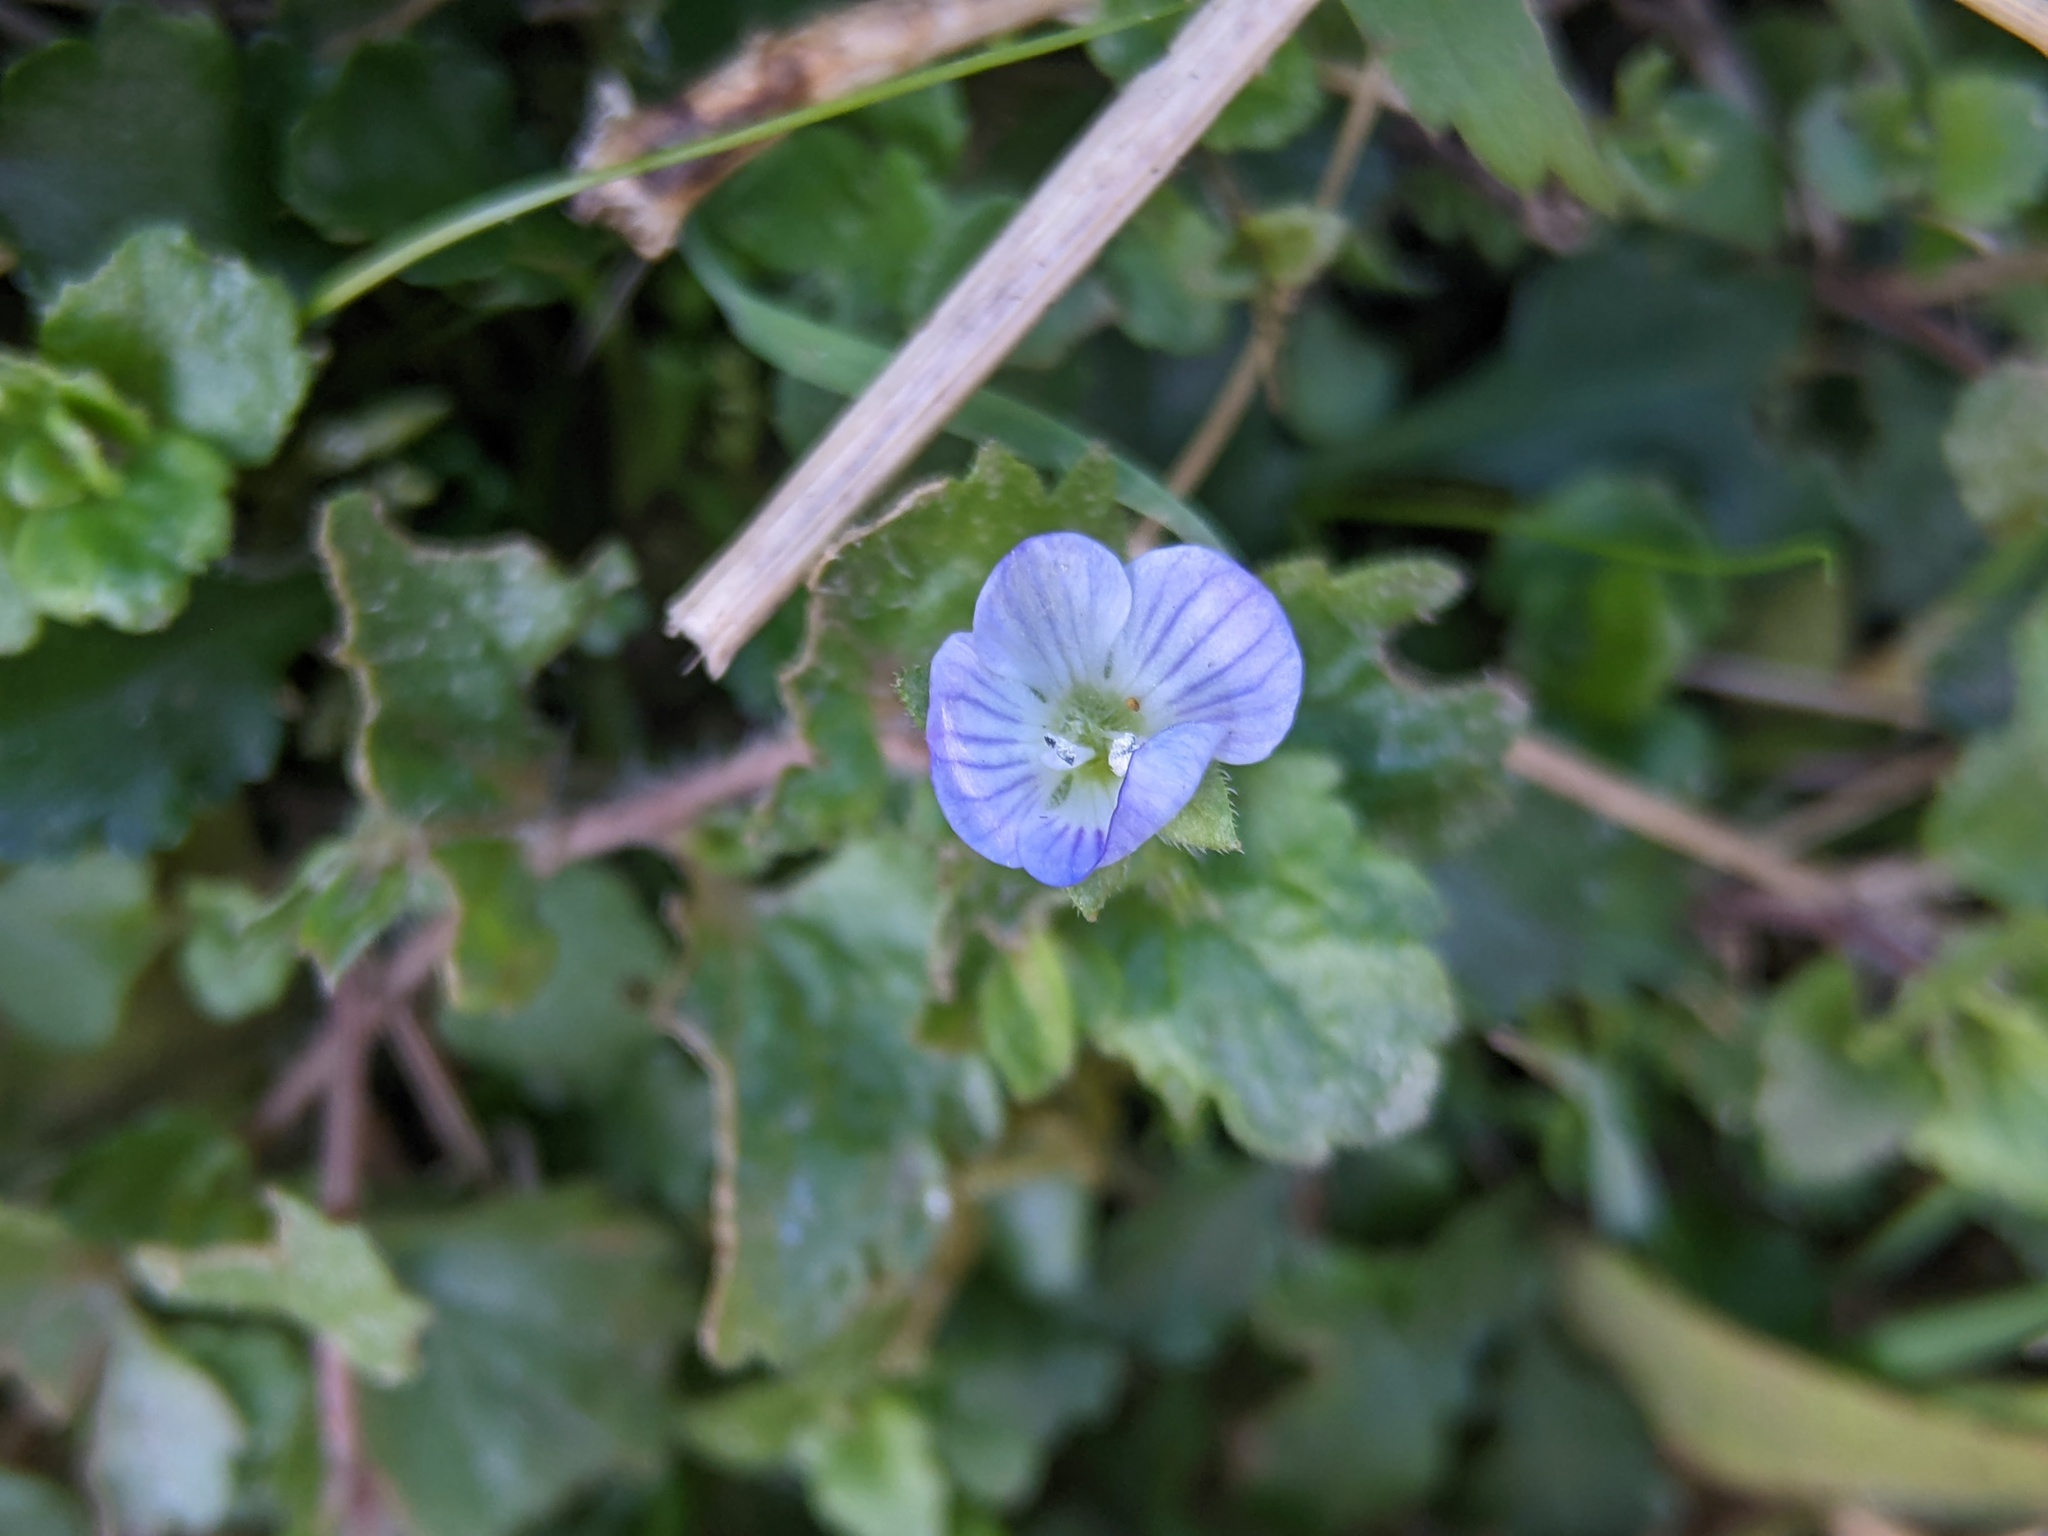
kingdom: Plantae
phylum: Tracheophyta
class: Magnoliopsida
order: Lamiales
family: Plantaginaceae
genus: Veronica
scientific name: Veronica persica
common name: Common field-speedwell
